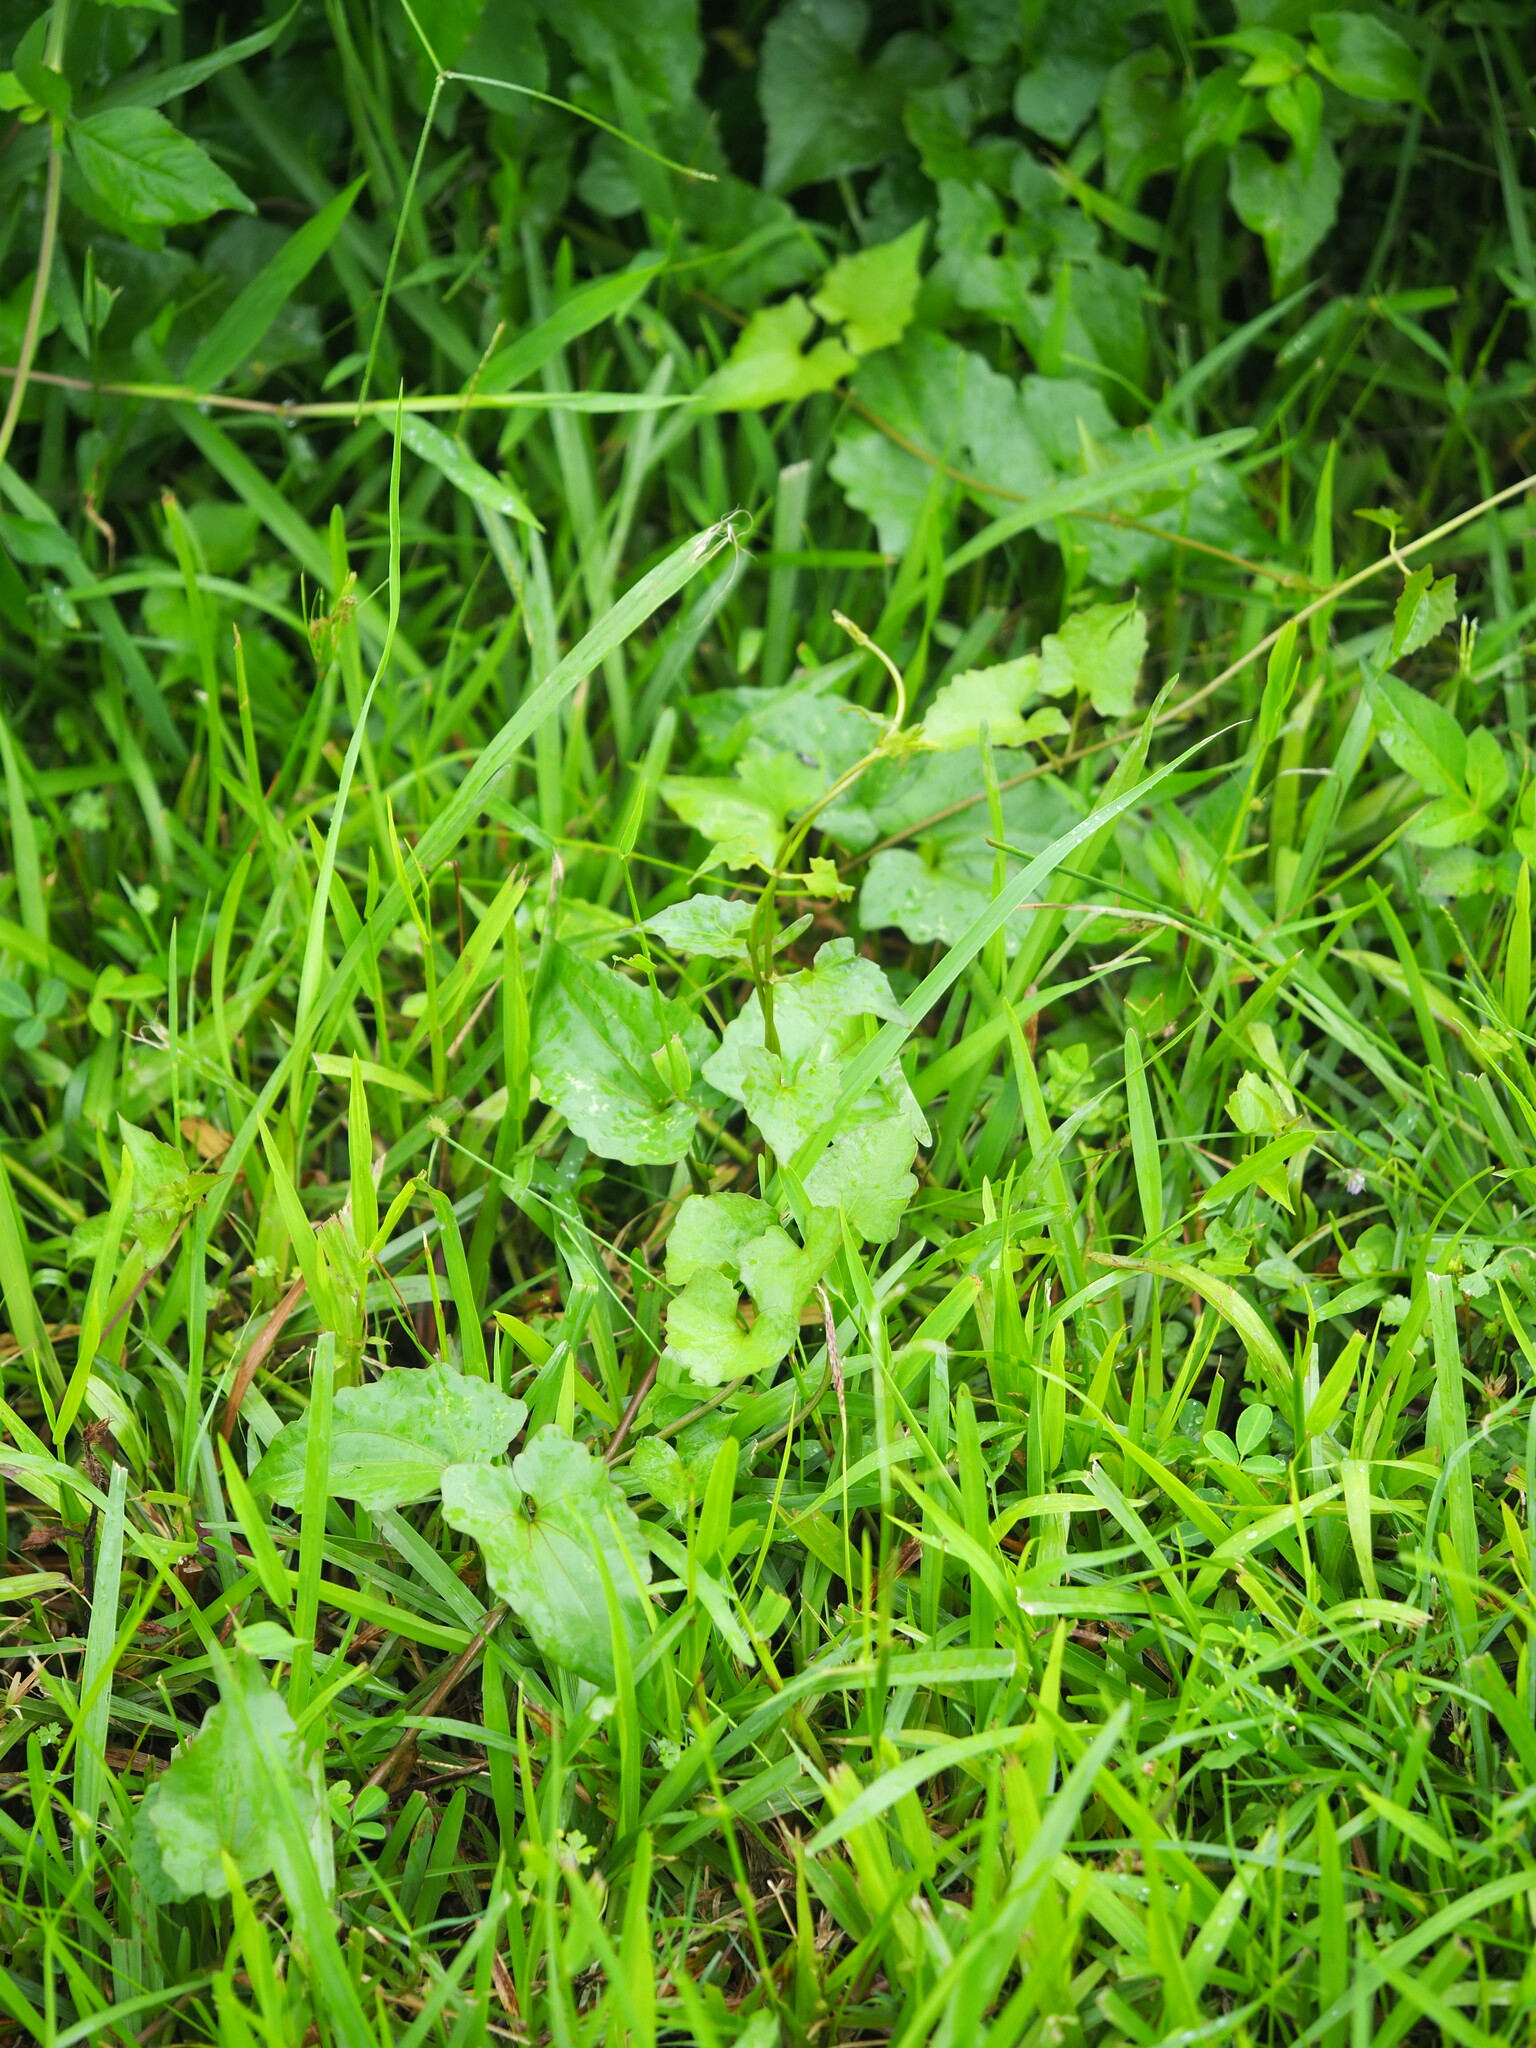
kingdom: Plantae
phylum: Tracheophyta
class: Magnoliopsida
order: Asterales
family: Asteraceae
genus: Mikania
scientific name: Mikania micrantha
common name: Mile-a-minute
